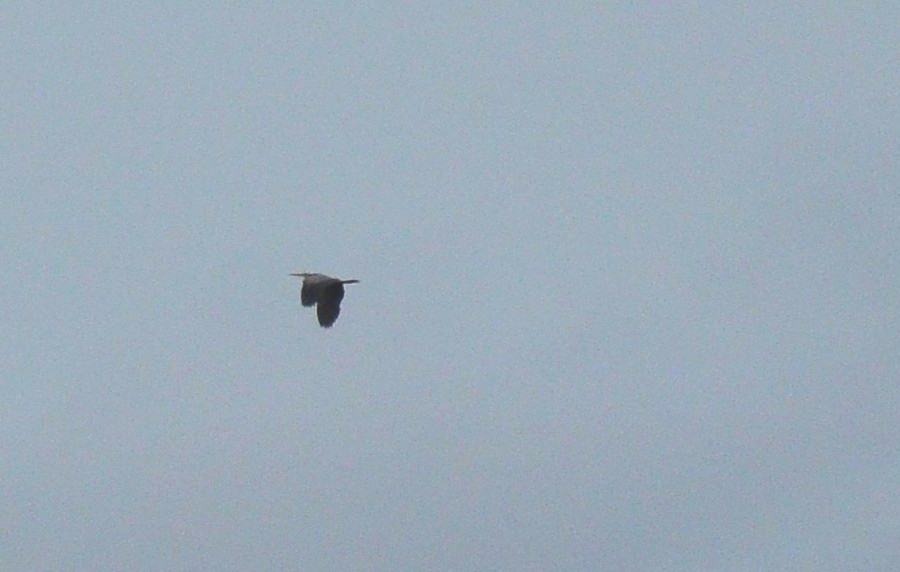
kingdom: Animalia
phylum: Chordata
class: Aves
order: Pelecaniformes
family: Ardeidae
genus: Ardea
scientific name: Ardea purpurea
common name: Purple heron
